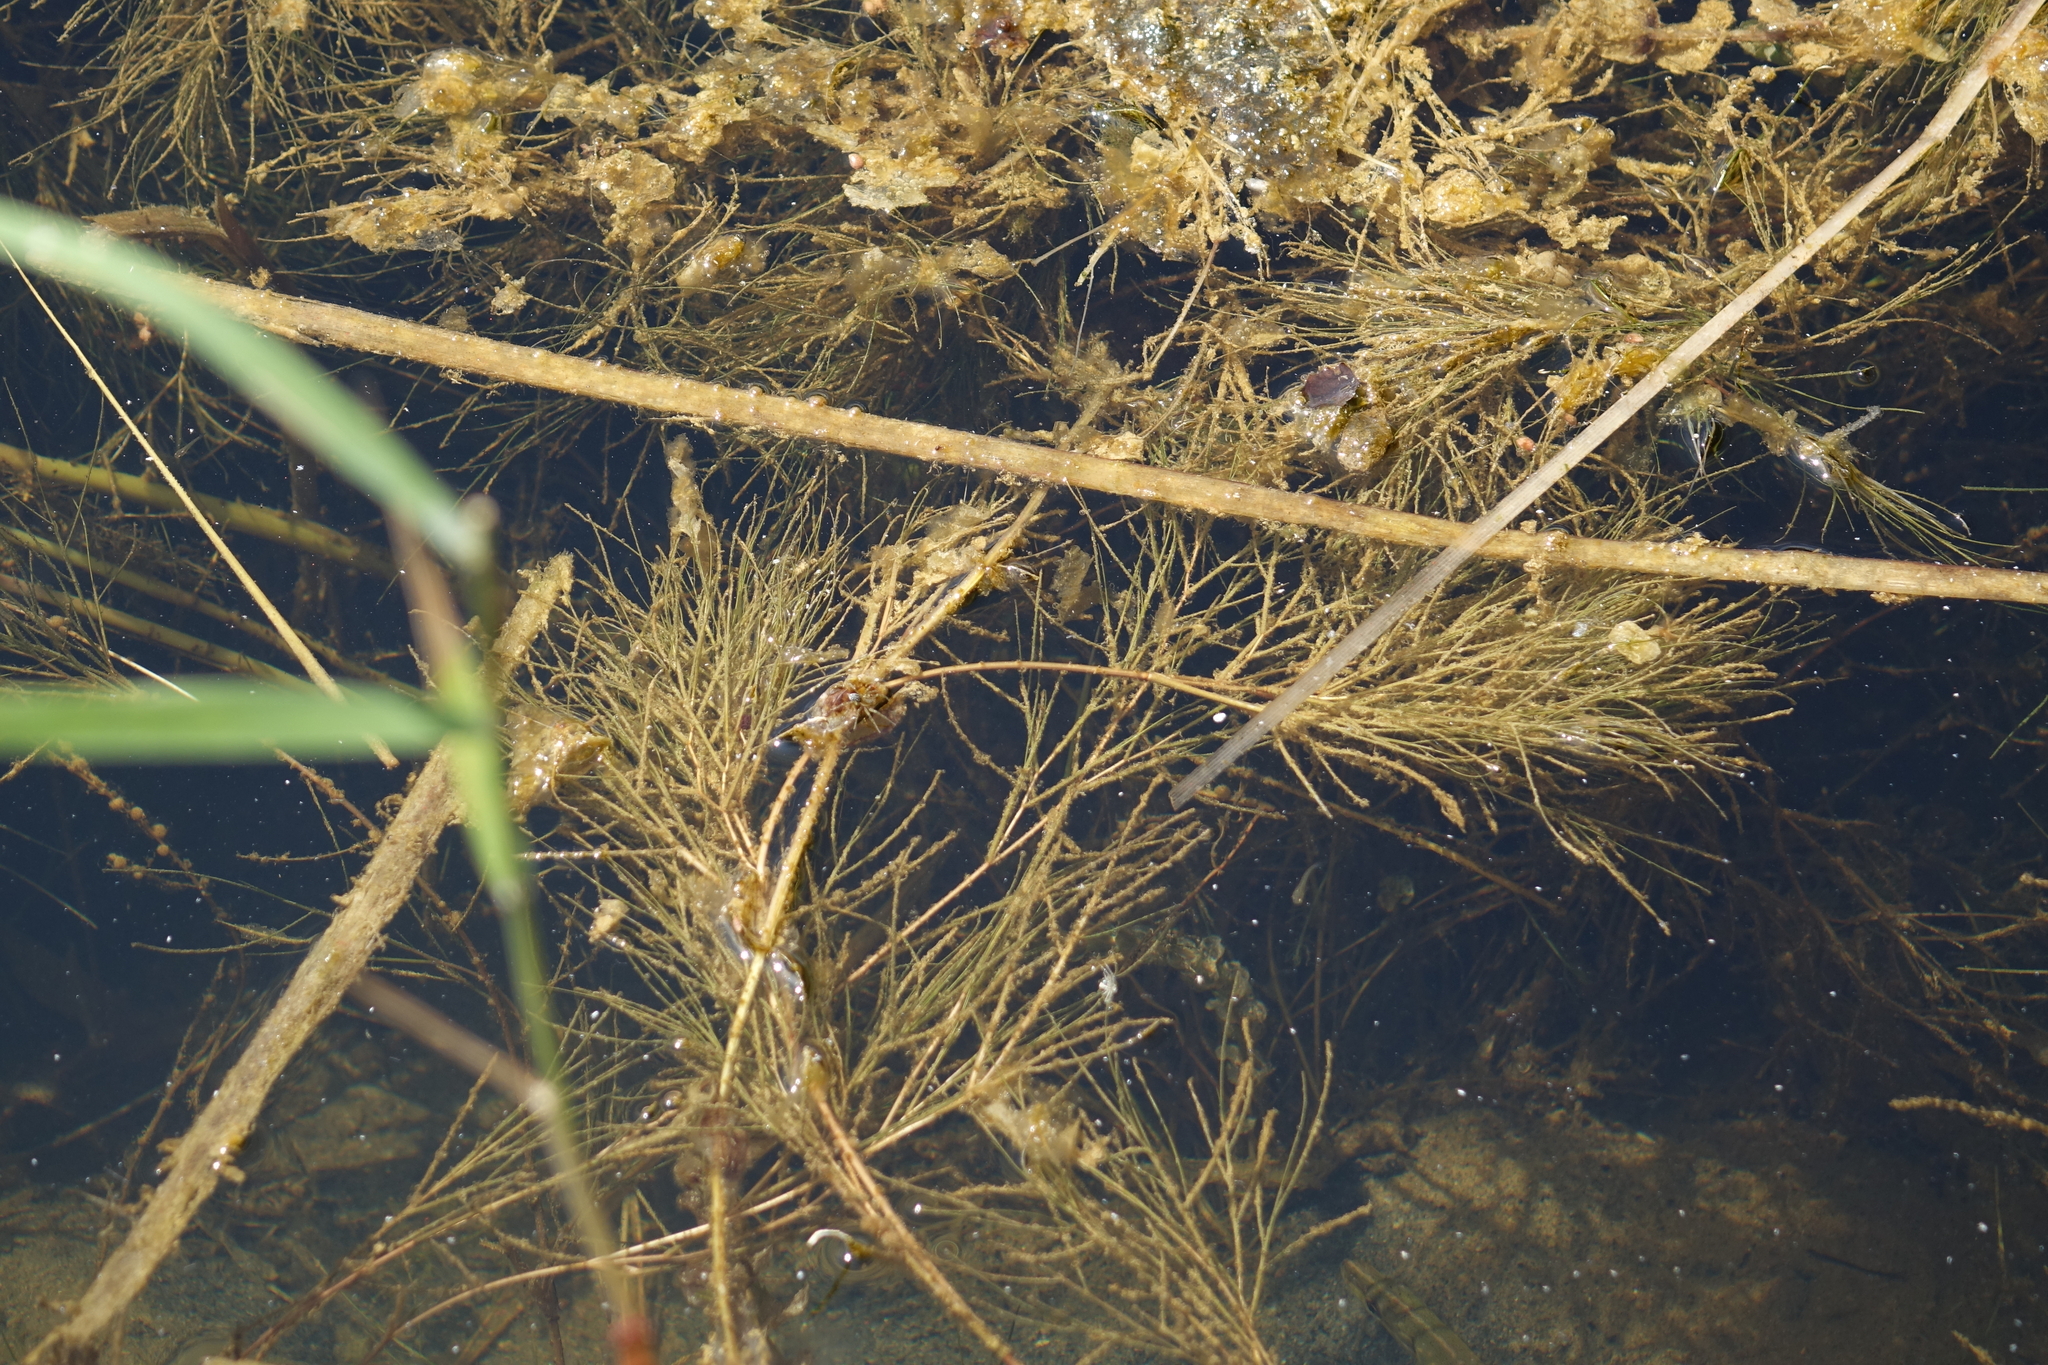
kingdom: Plantae
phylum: Tracheophyta
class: Liliopsida
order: Alismatales
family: Potamogetonaceae
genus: Stuckenia
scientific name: Stuckenia pectinata
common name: Sago pondweed
